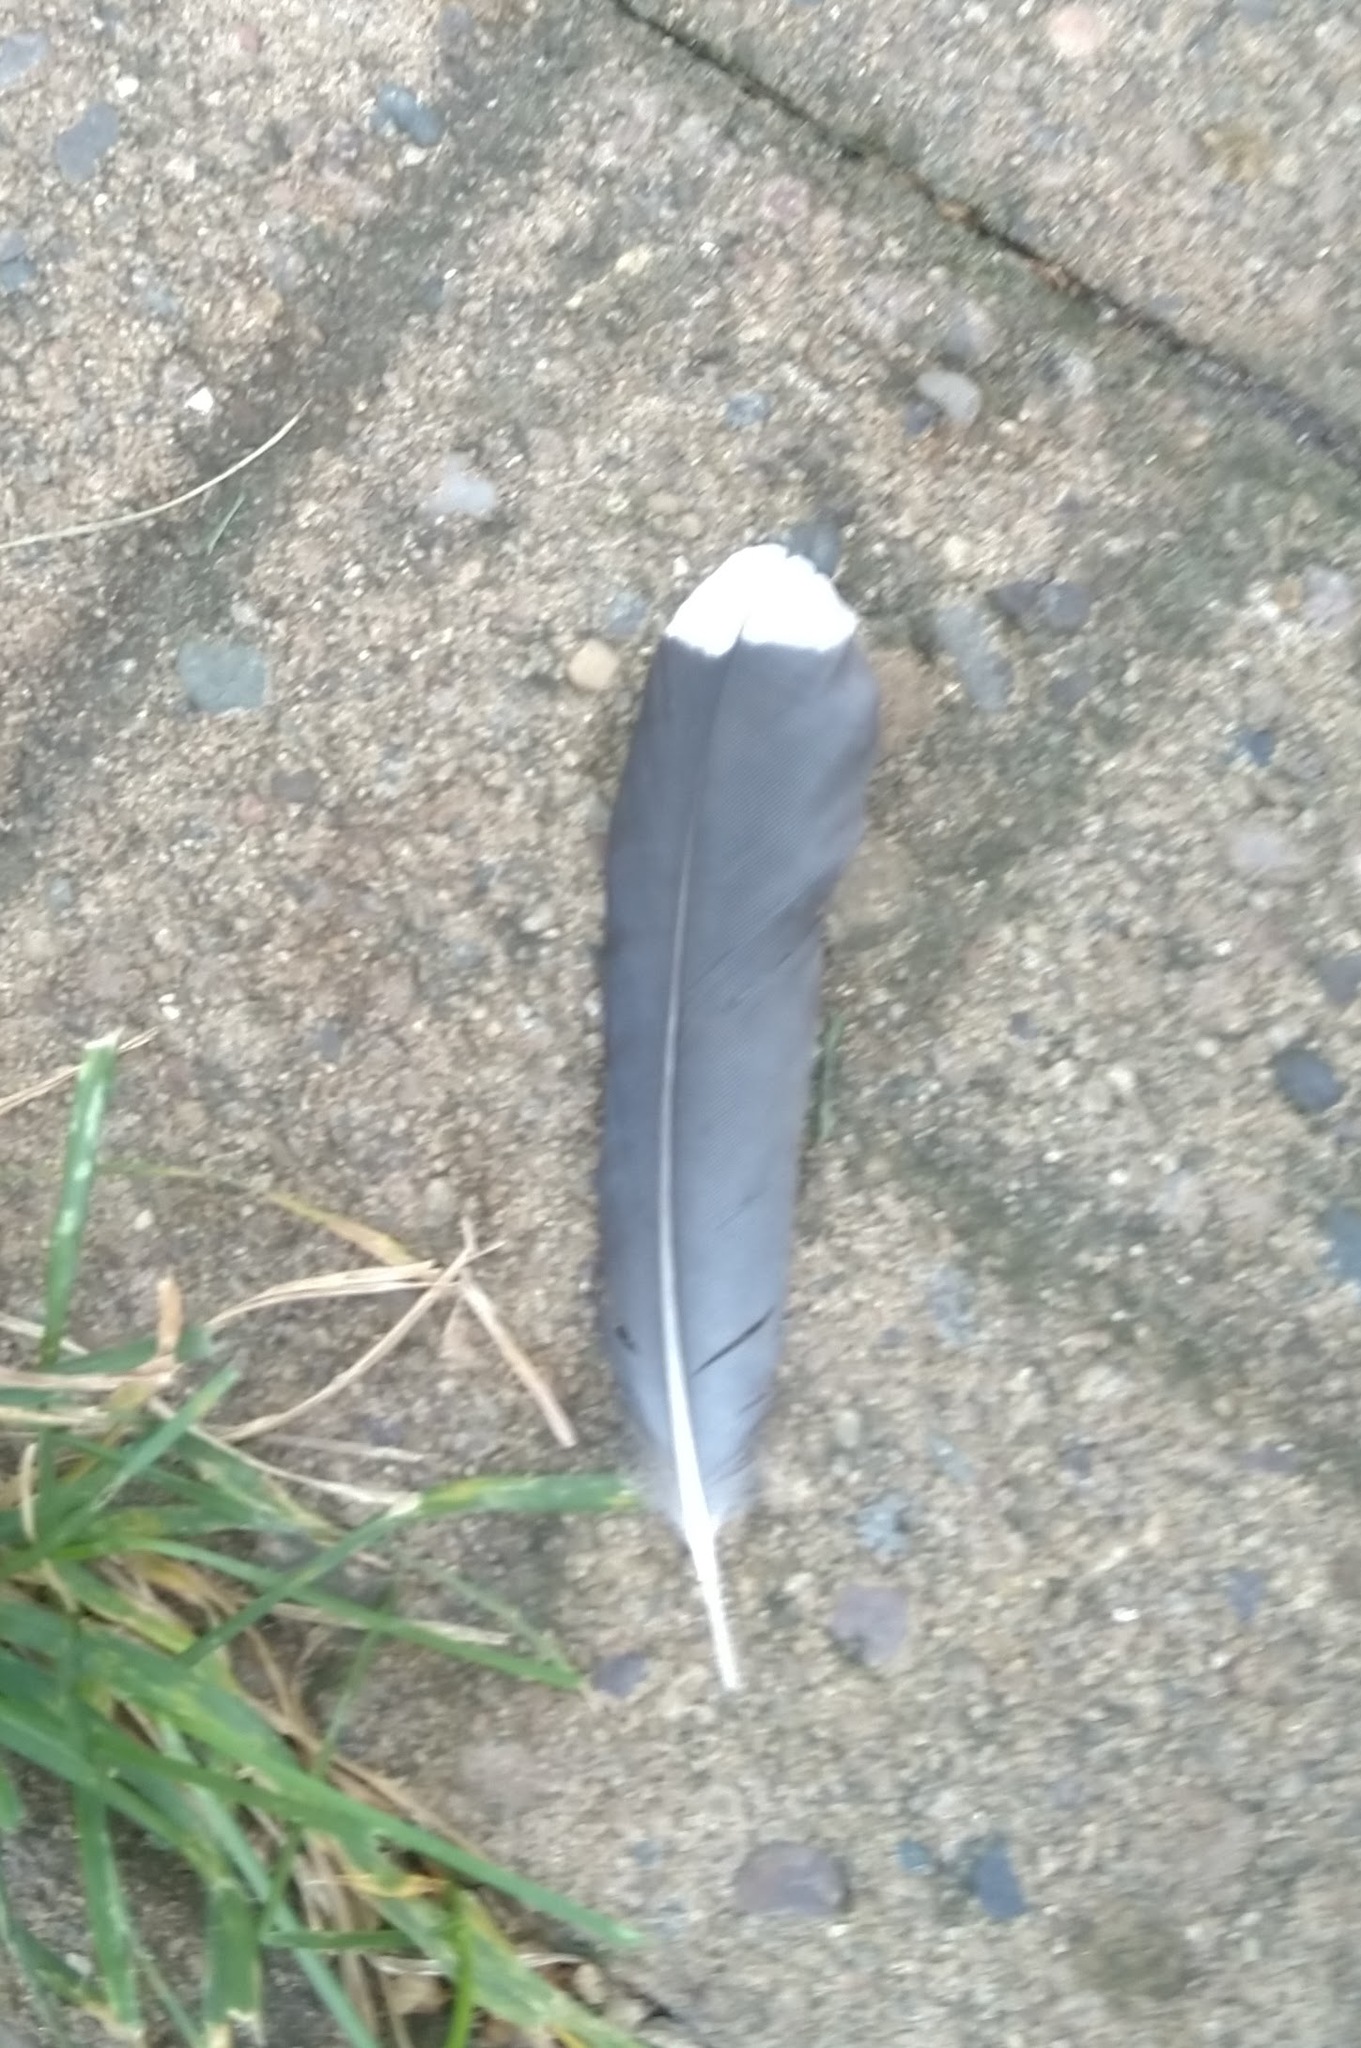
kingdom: Animalia
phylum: Chordata
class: Aves
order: Passeriformes
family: Corvidae
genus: Cyanocitta
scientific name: Cyanocitta cristata
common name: Blue jay
